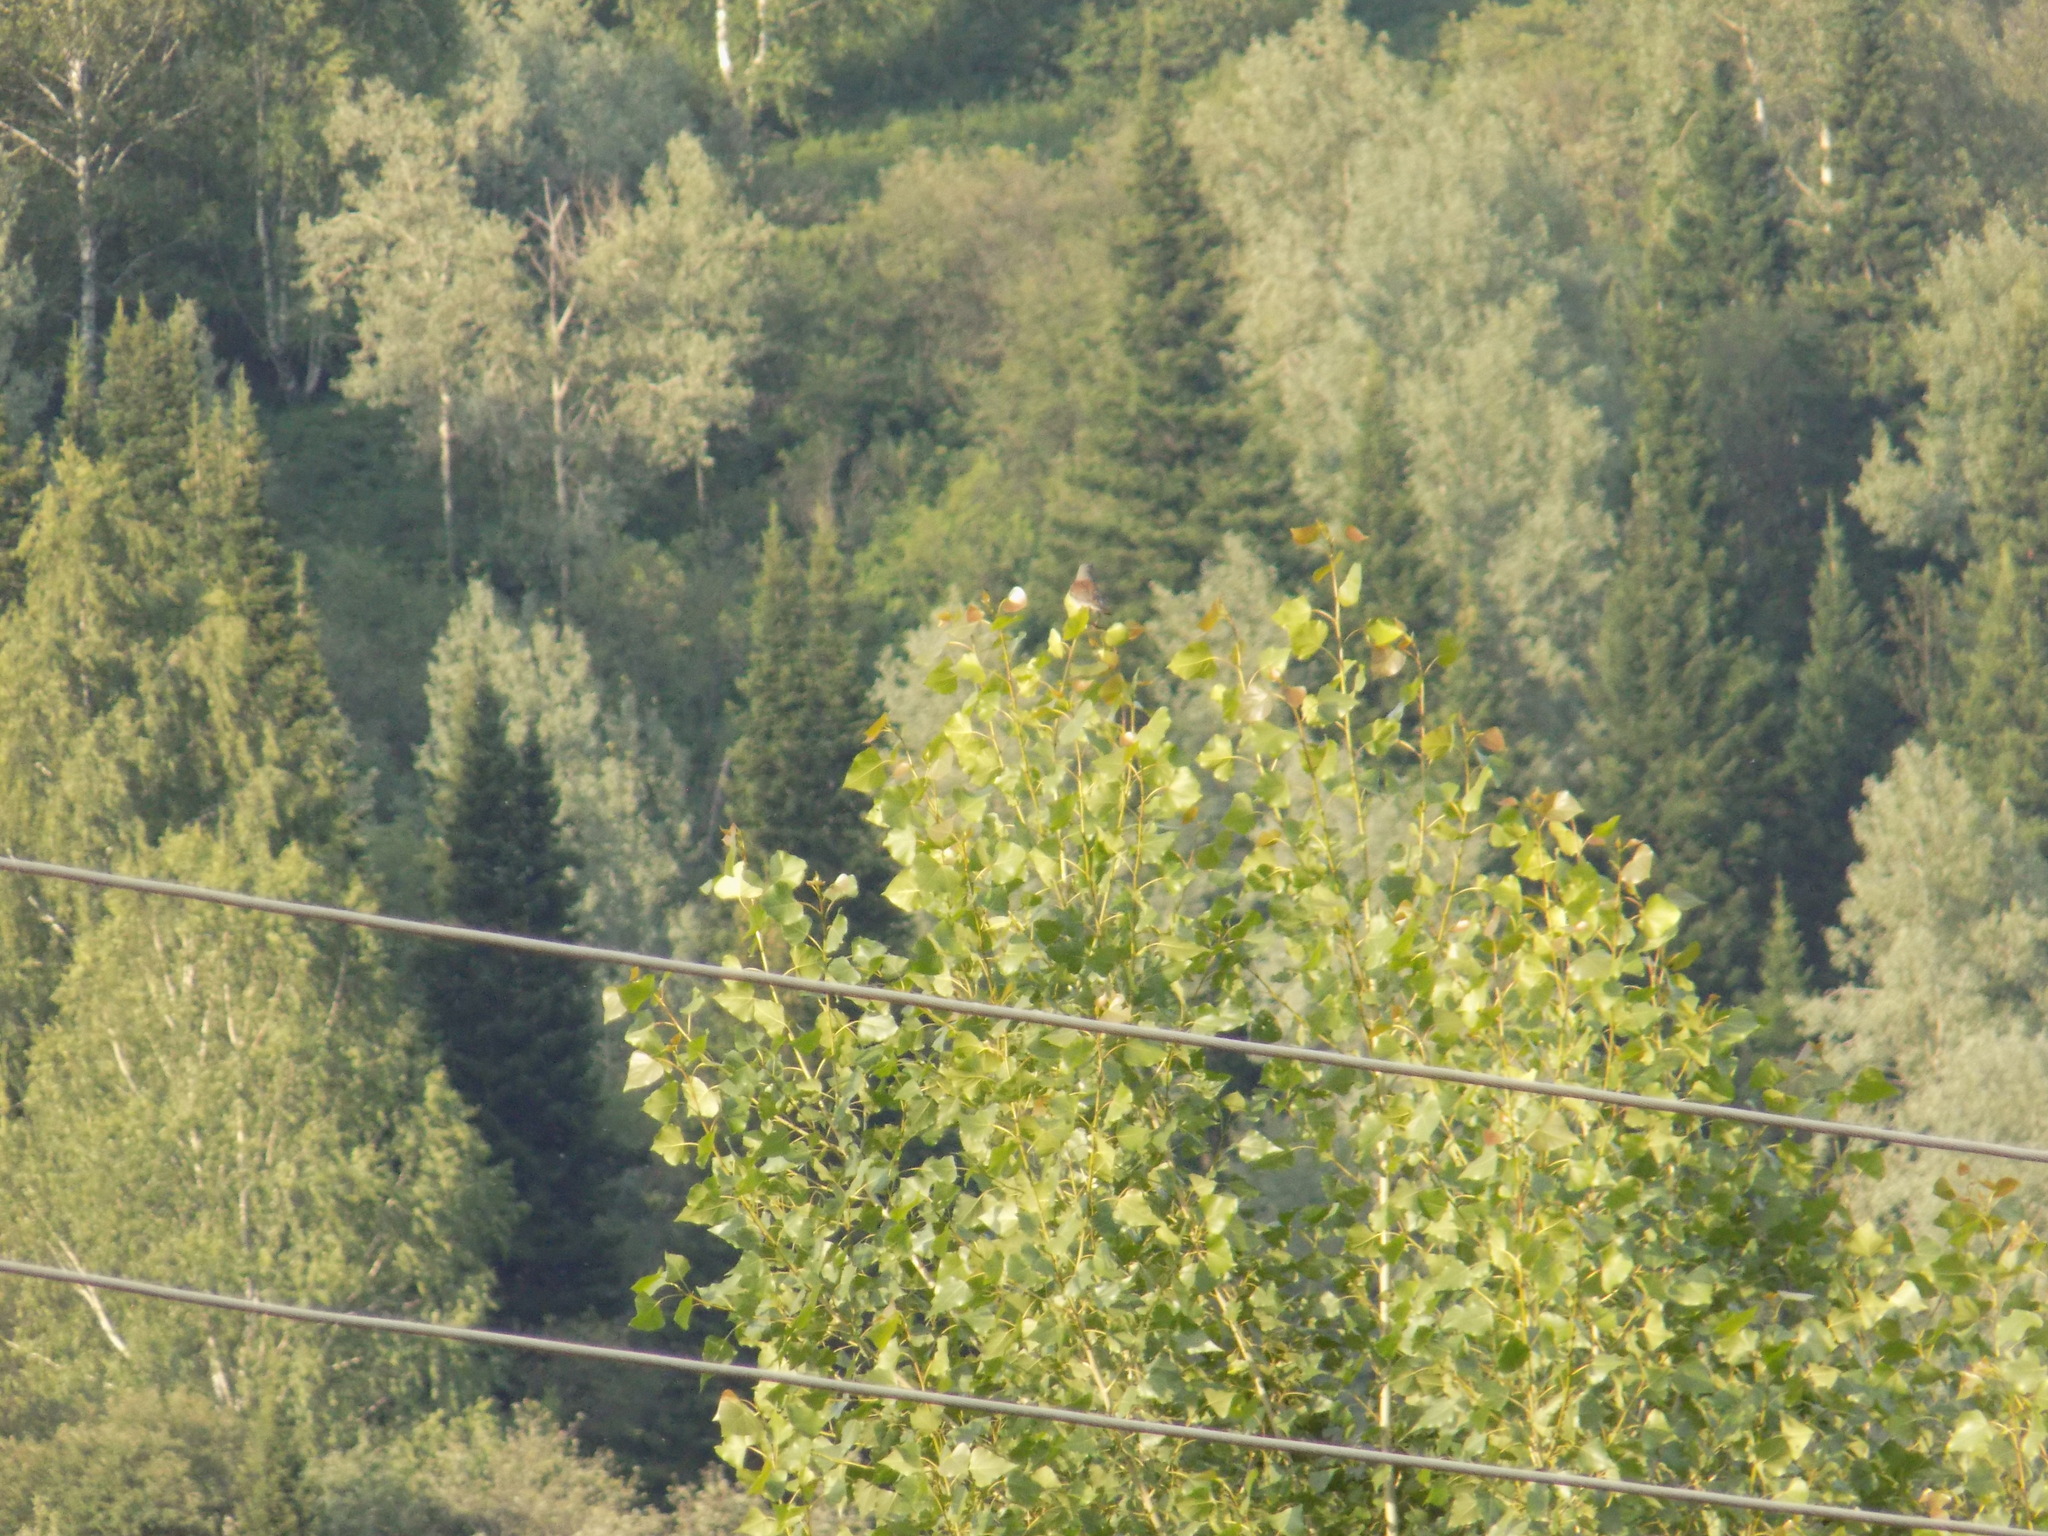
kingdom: Animalia
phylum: Chordata
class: Aves
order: Passeriformes
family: Turdidae
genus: Turdus
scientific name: Turdus pilaris
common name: Fieldfare
